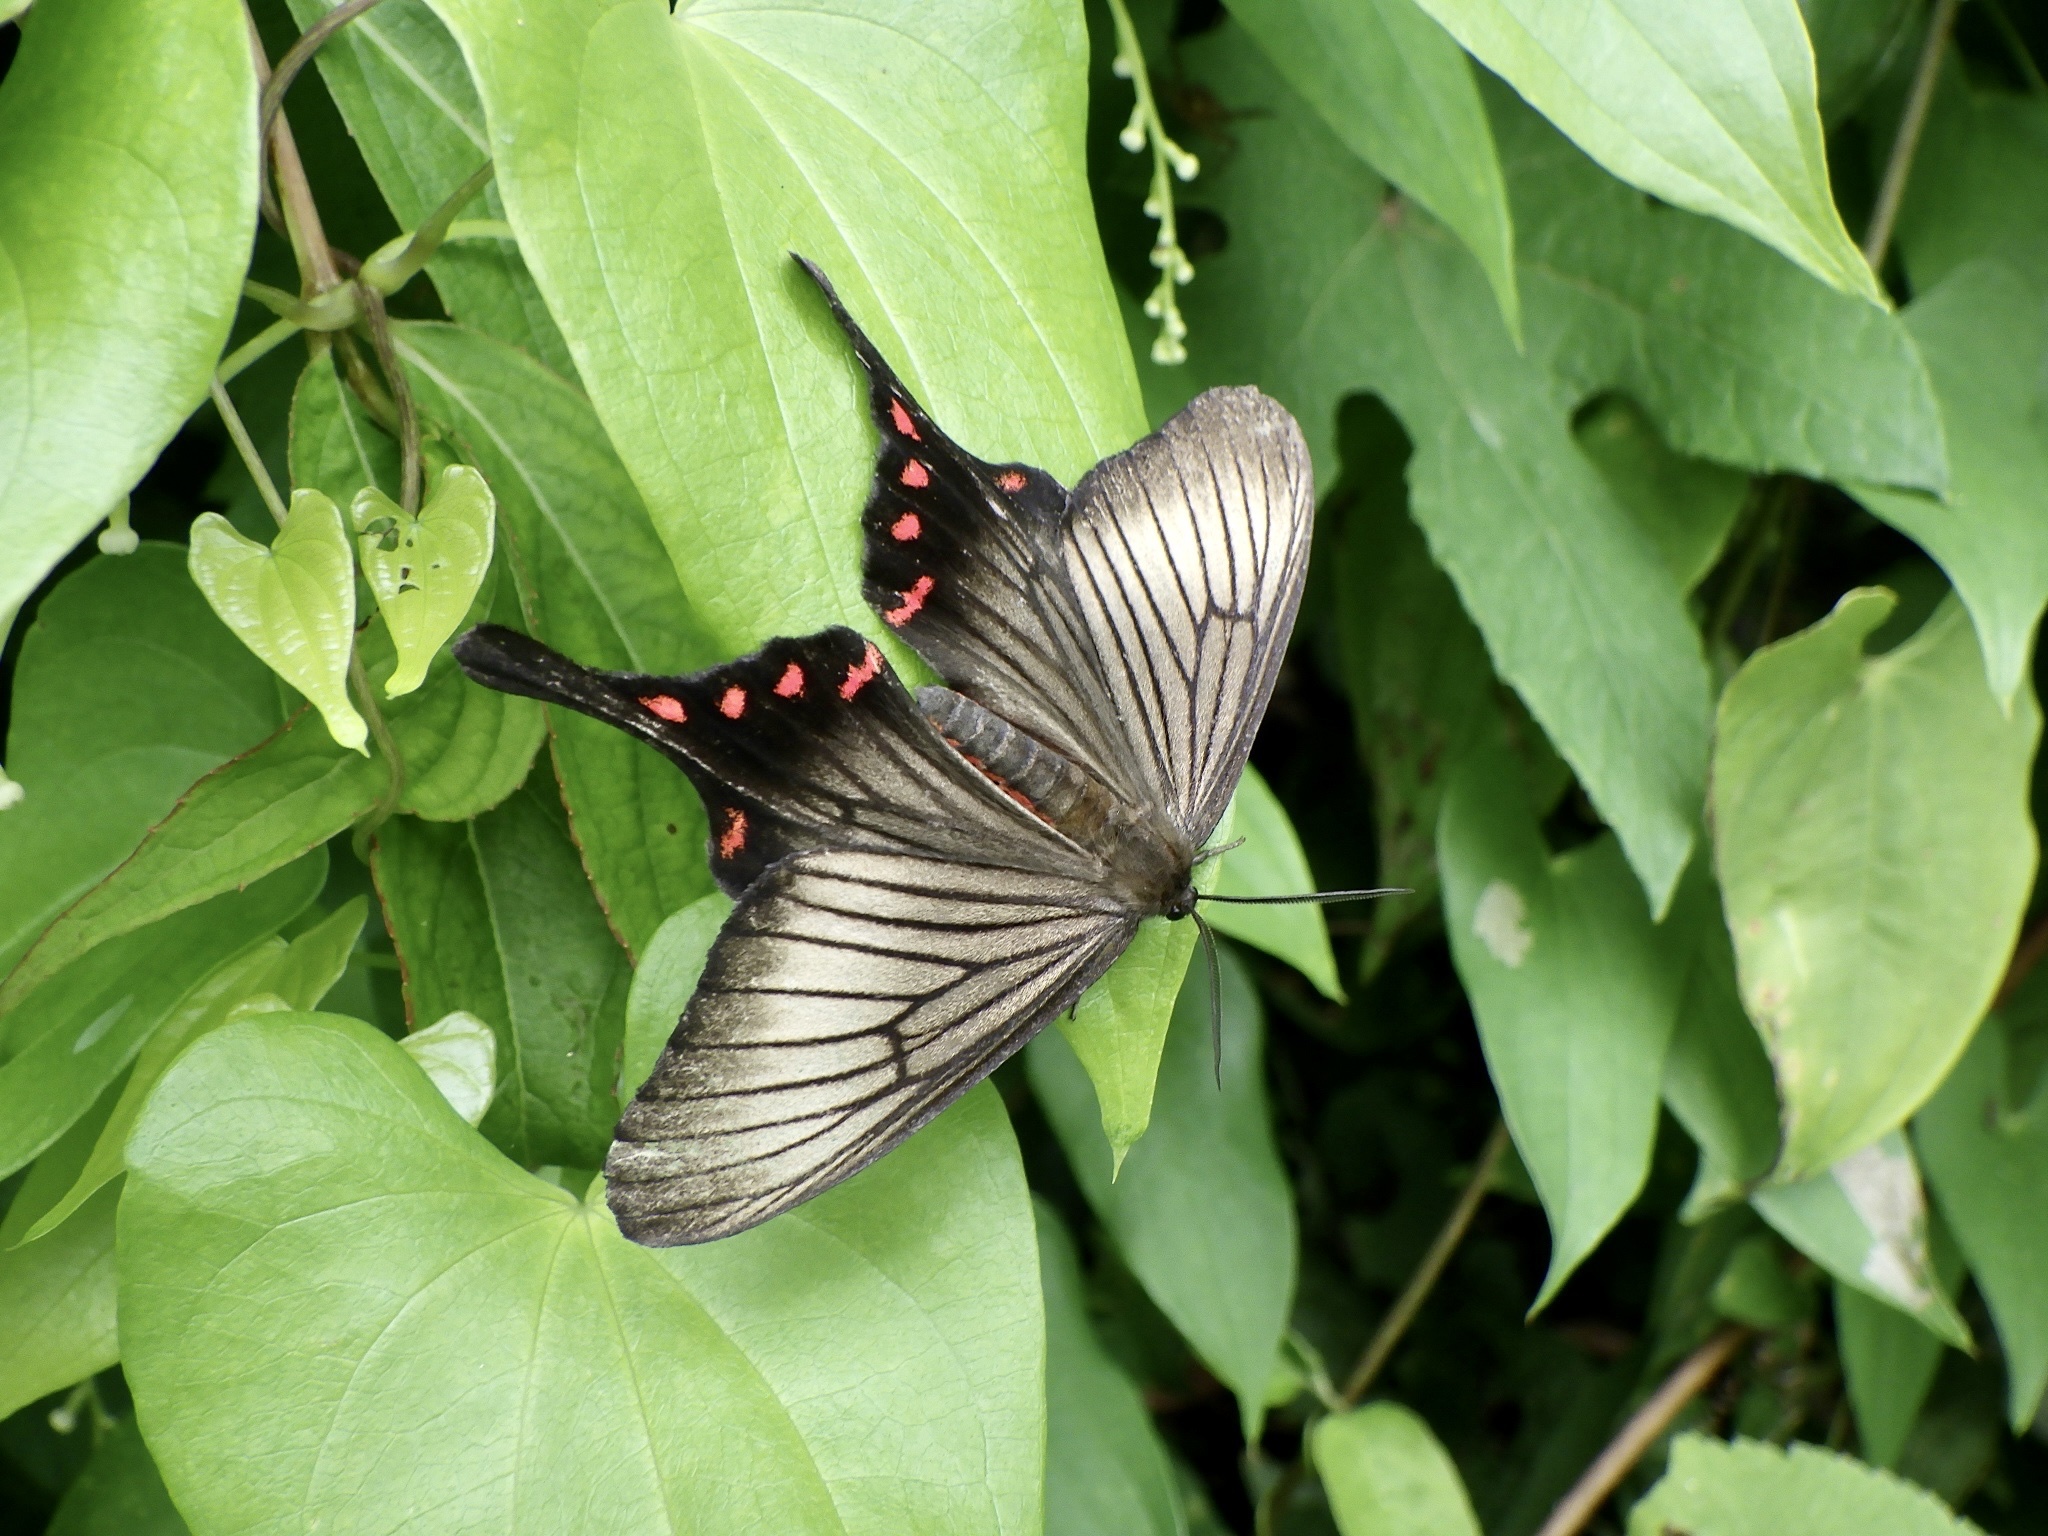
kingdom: Animalia
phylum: Arthropoda
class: Insecta
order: Lepidoptera
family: Epicopeiidae
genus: Epicopeia
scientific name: Epicopeia hainesii
